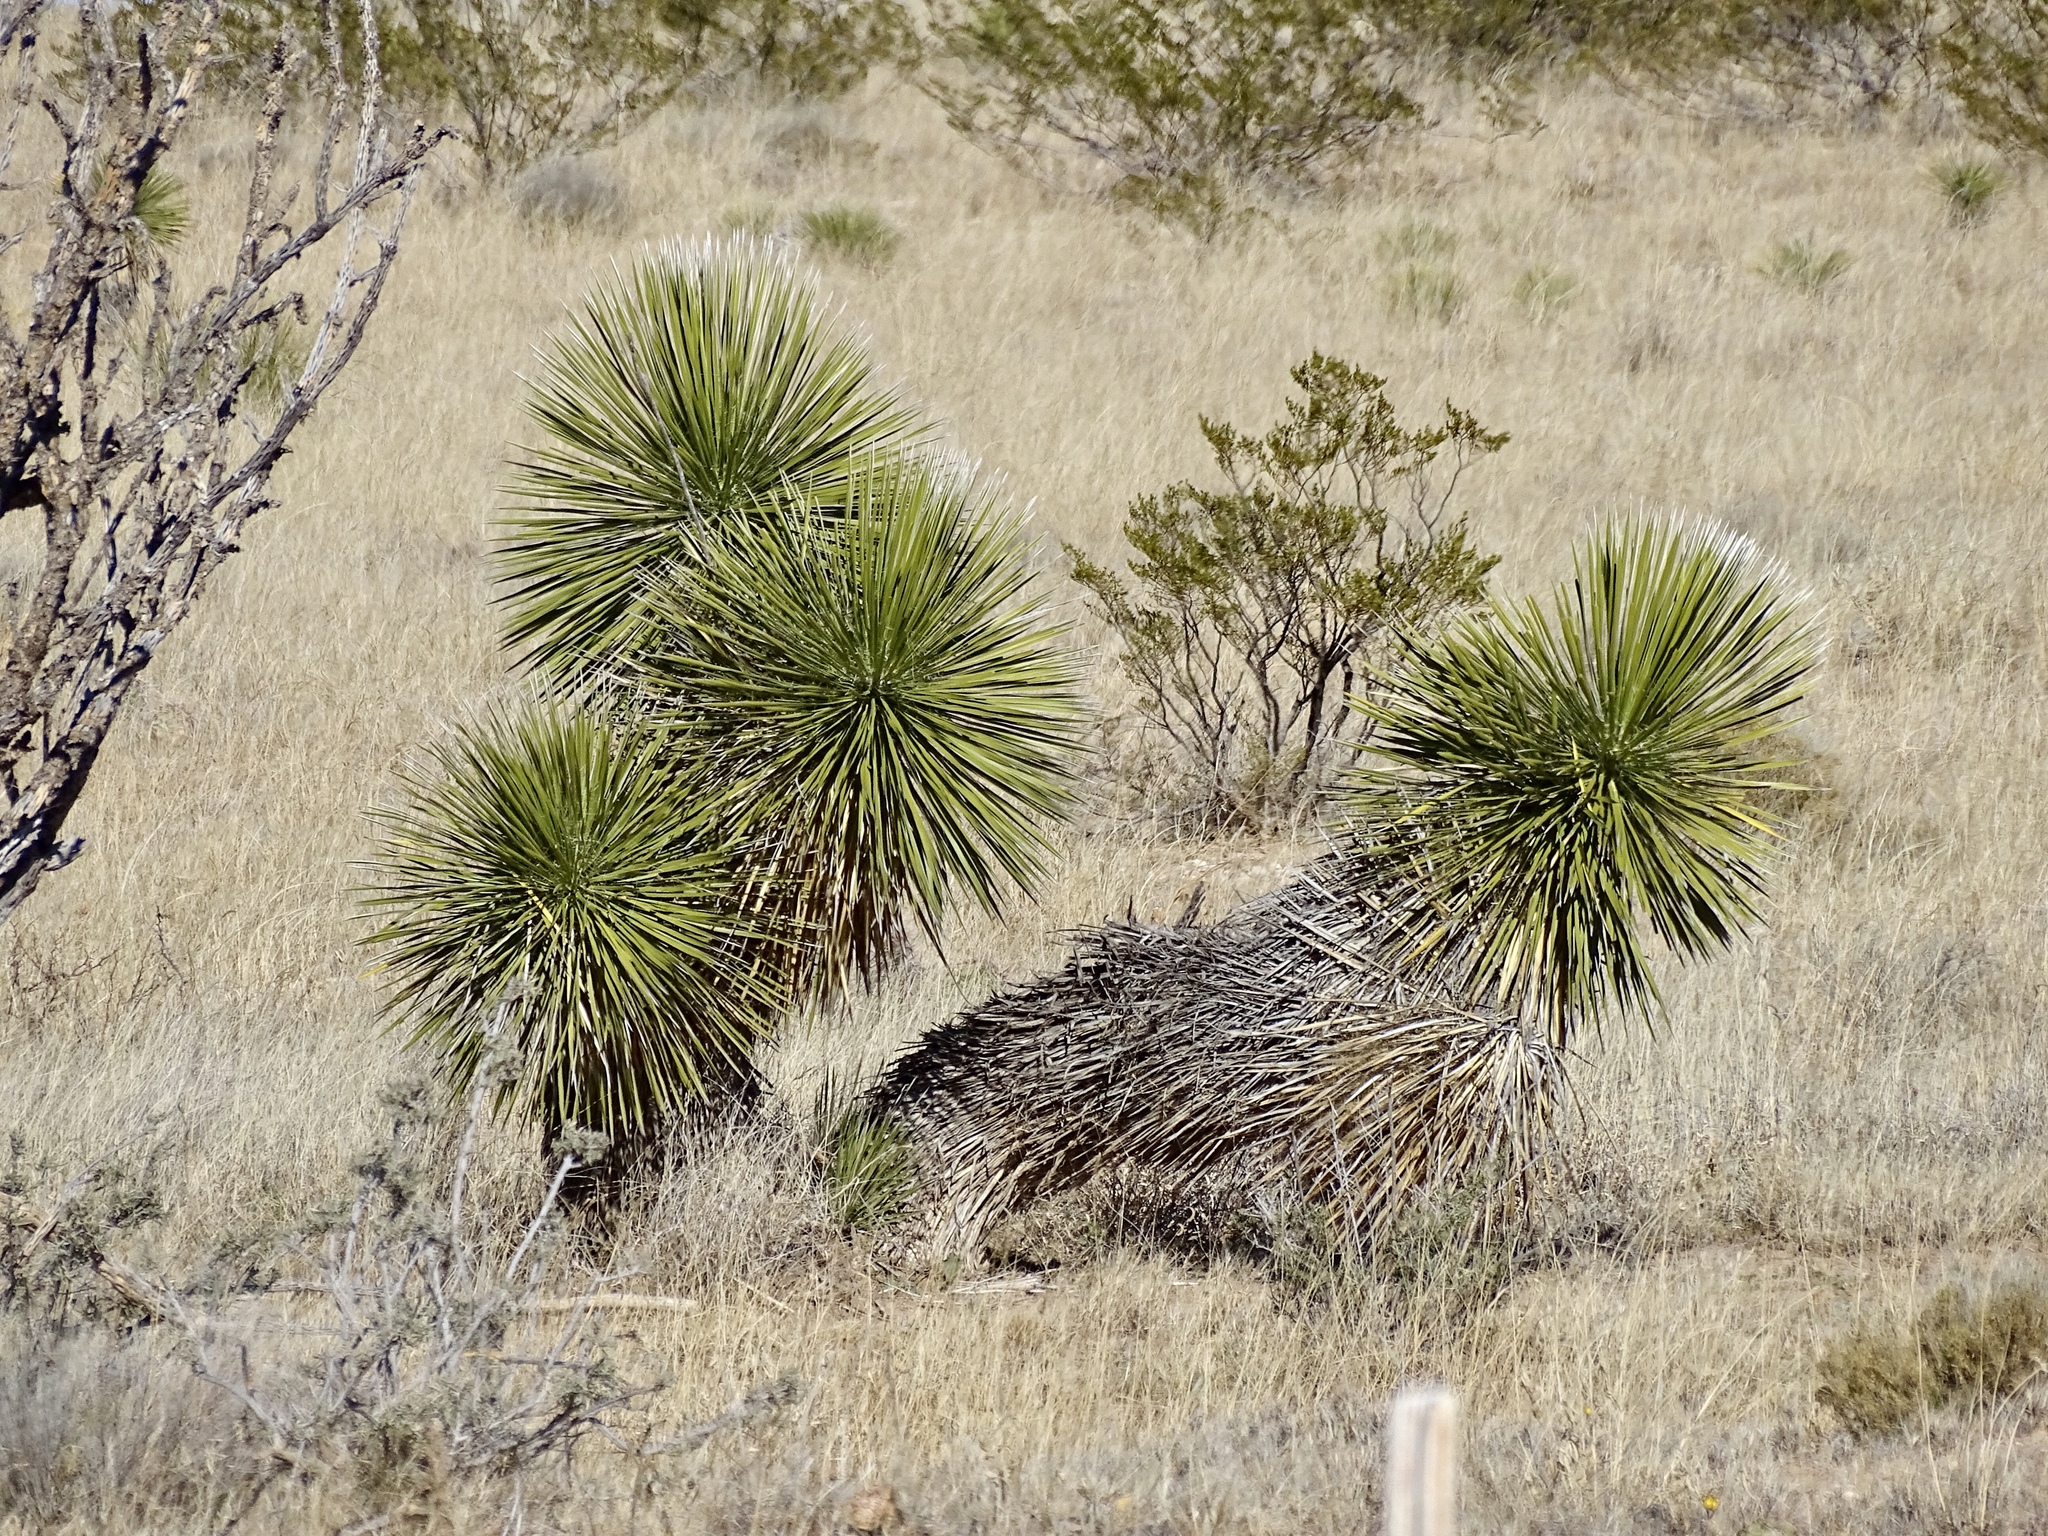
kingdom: Plantae
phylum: Tracheophyta
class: Liliopsida
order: Asparagales
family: Asparagaceae
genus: Yucca
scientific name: Yucca elata
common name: Palmella
